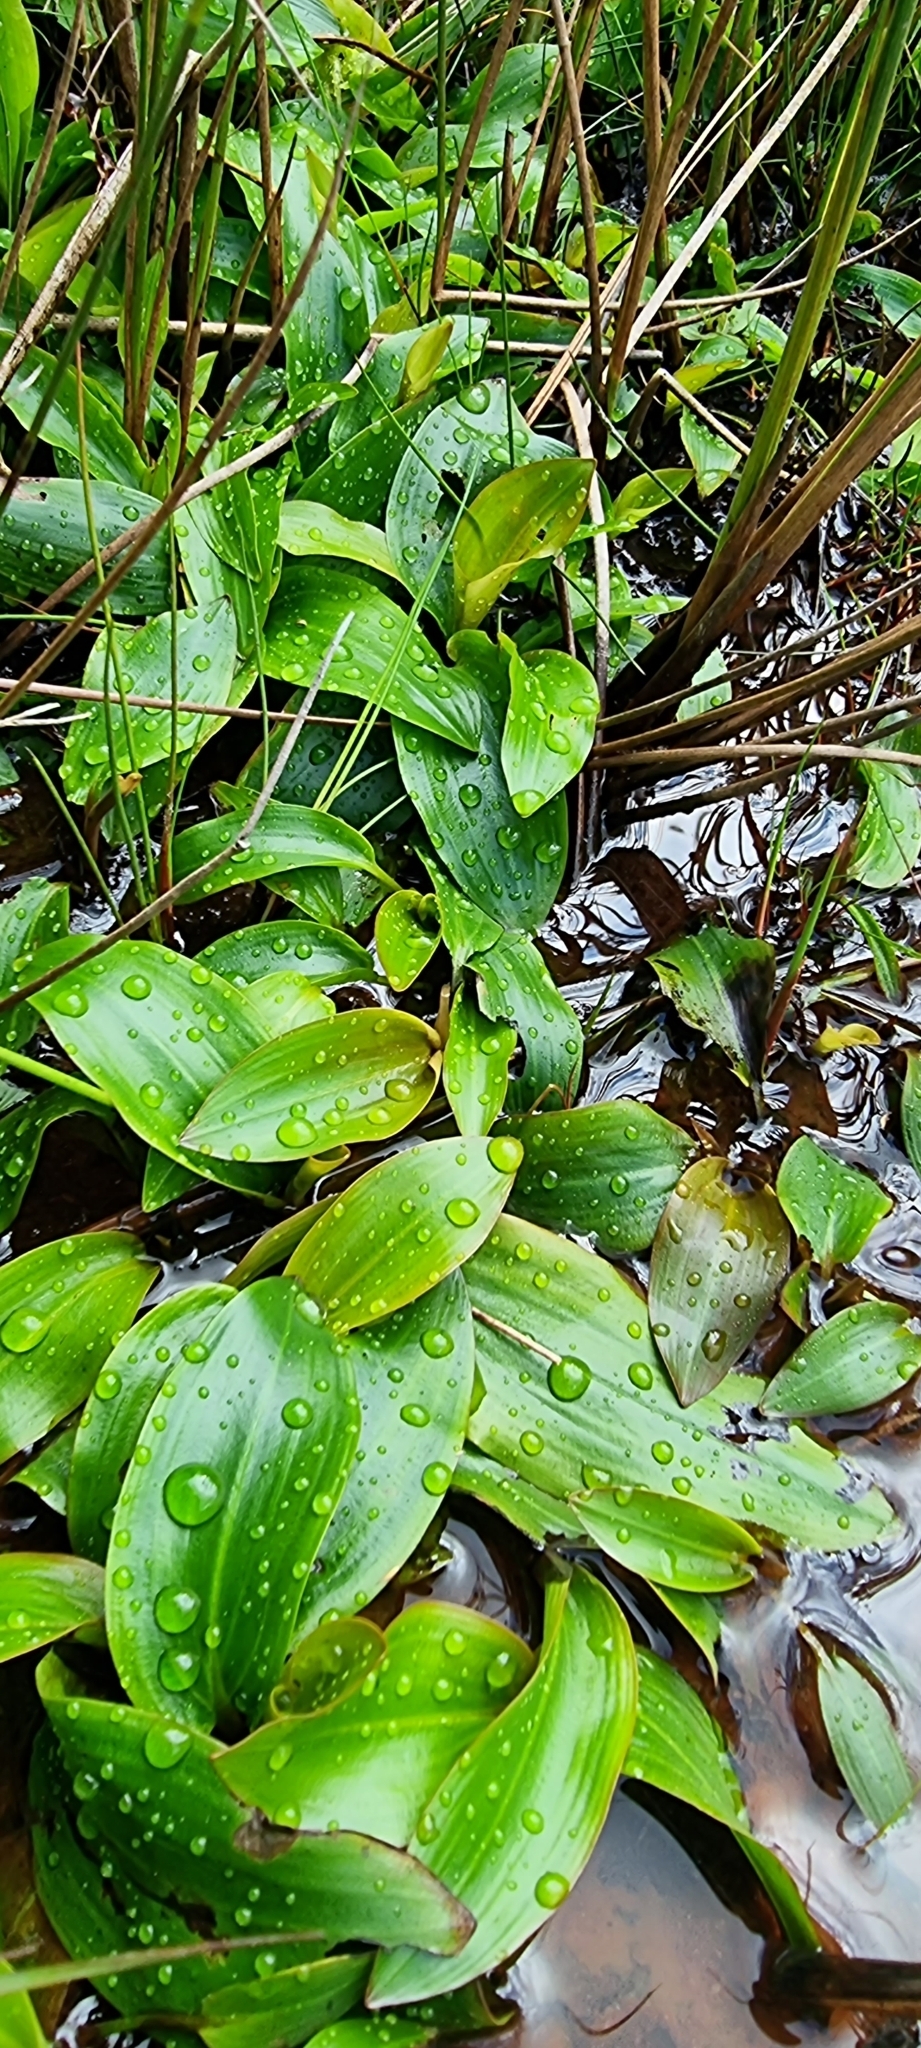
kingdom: Plantae
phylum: Tracheophyta
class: Liliopsida
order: Alismatales
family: Potamogetonaceae
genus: Potamogeton
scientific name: Potamogeton polygonifolius
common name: Bog pondweed
